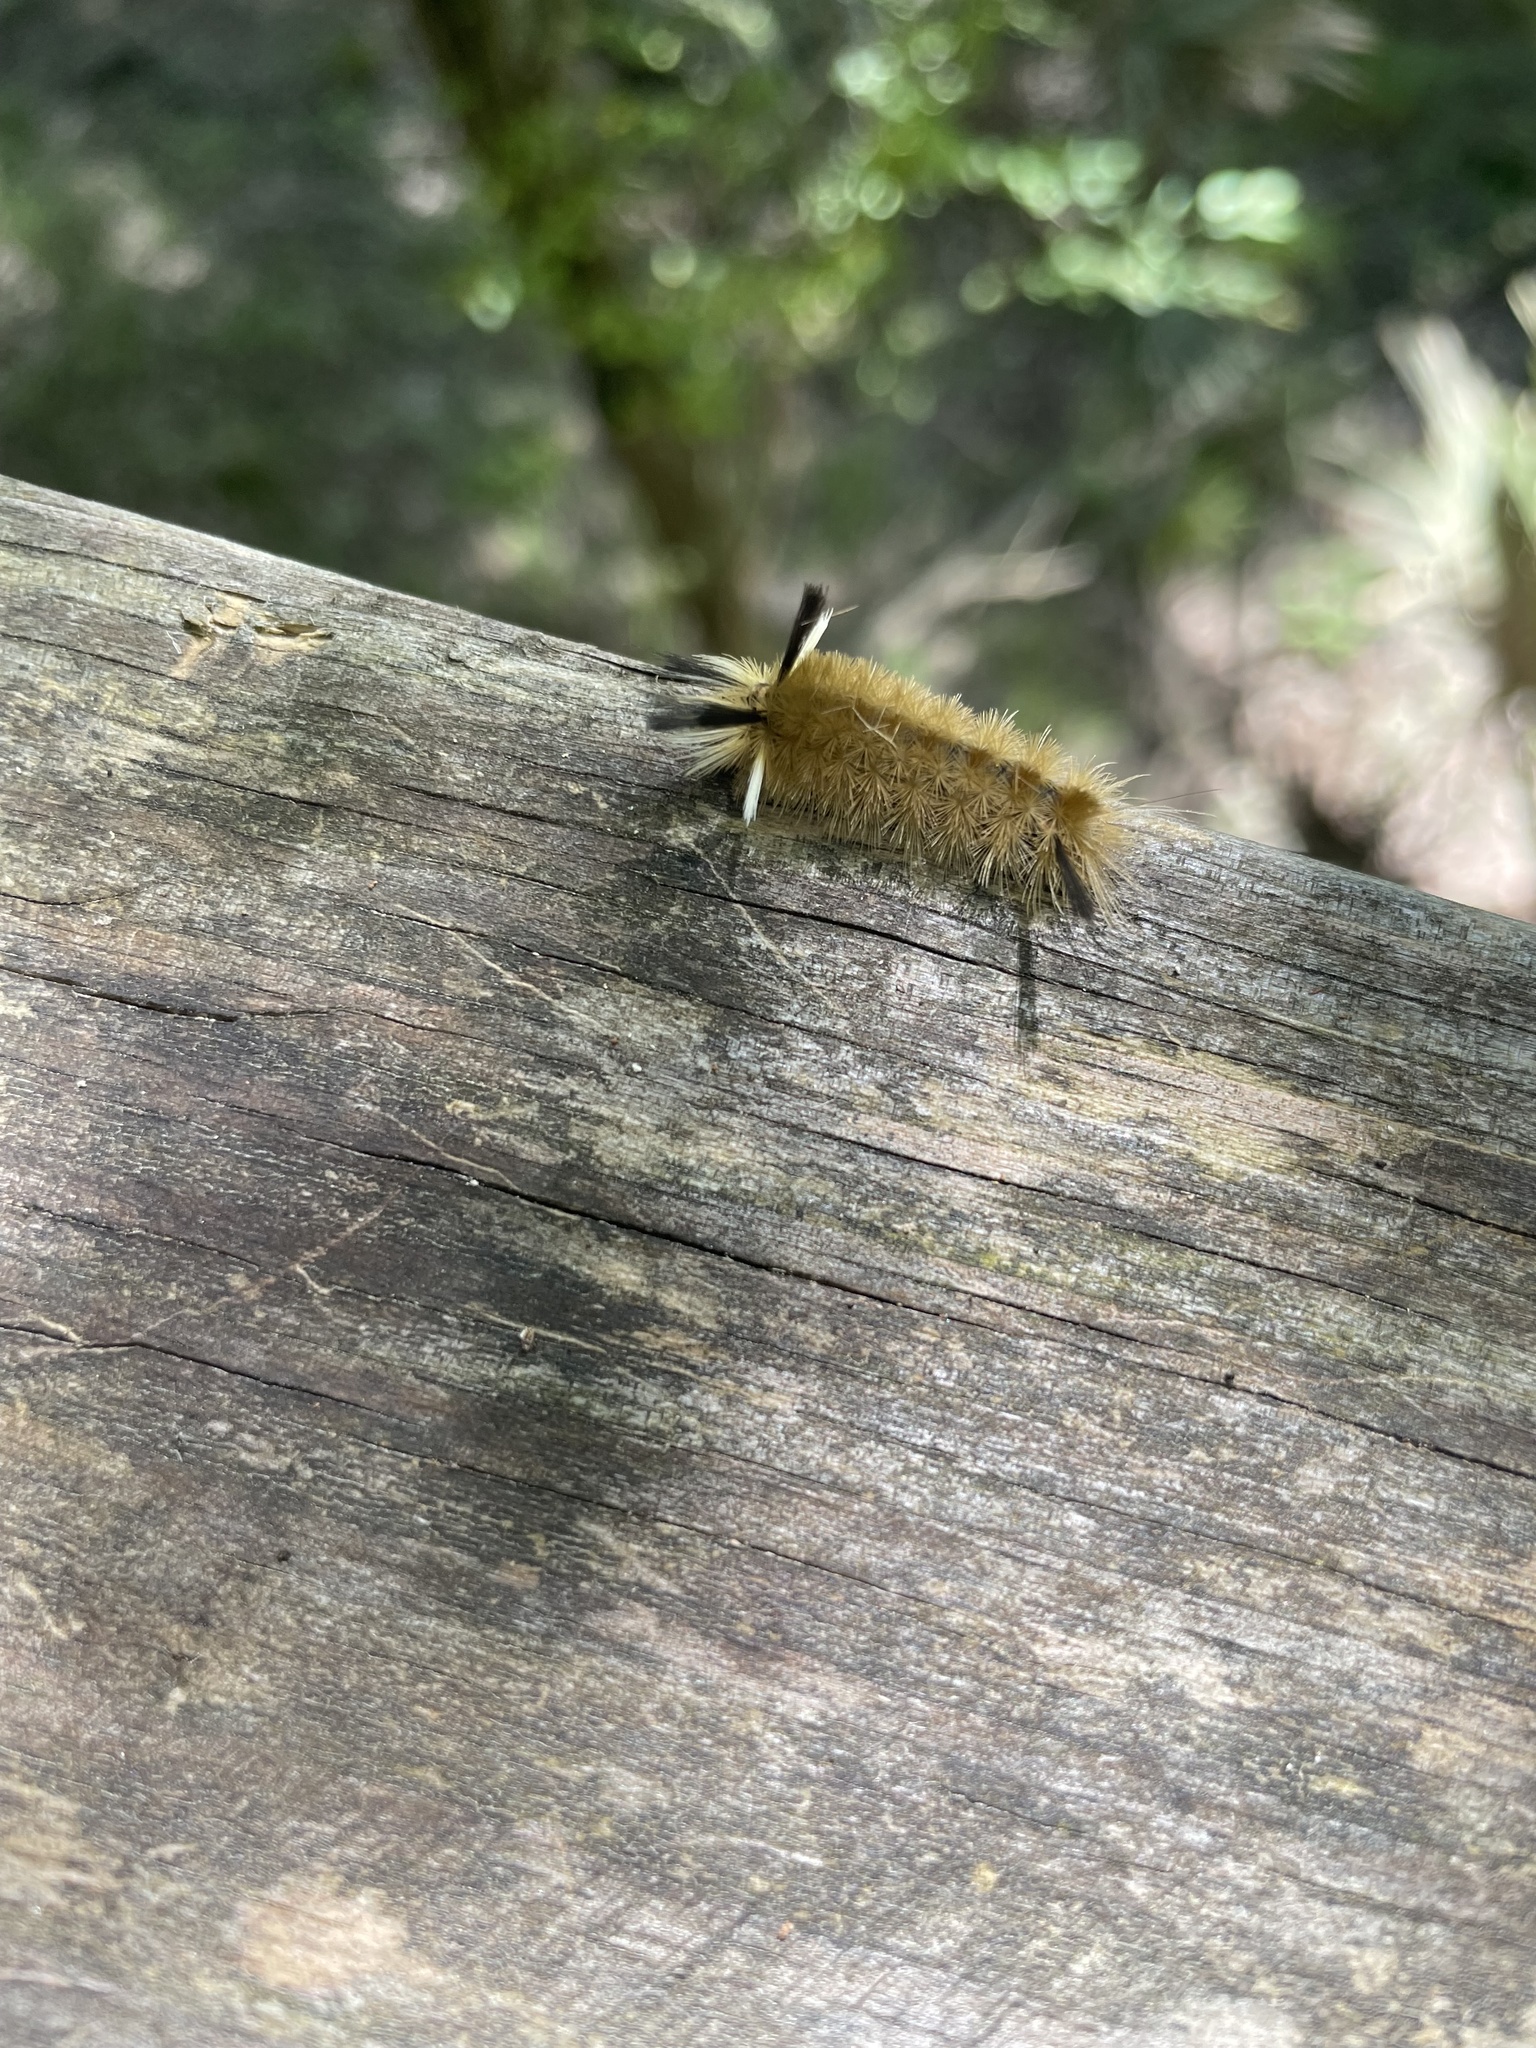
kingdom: Animalia
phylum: Arthropoda
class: Insecta
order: Lepidoptera
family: Erebidae
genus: Halysidota
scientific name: Halysidota tessellaris
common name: Banded tussock moth
